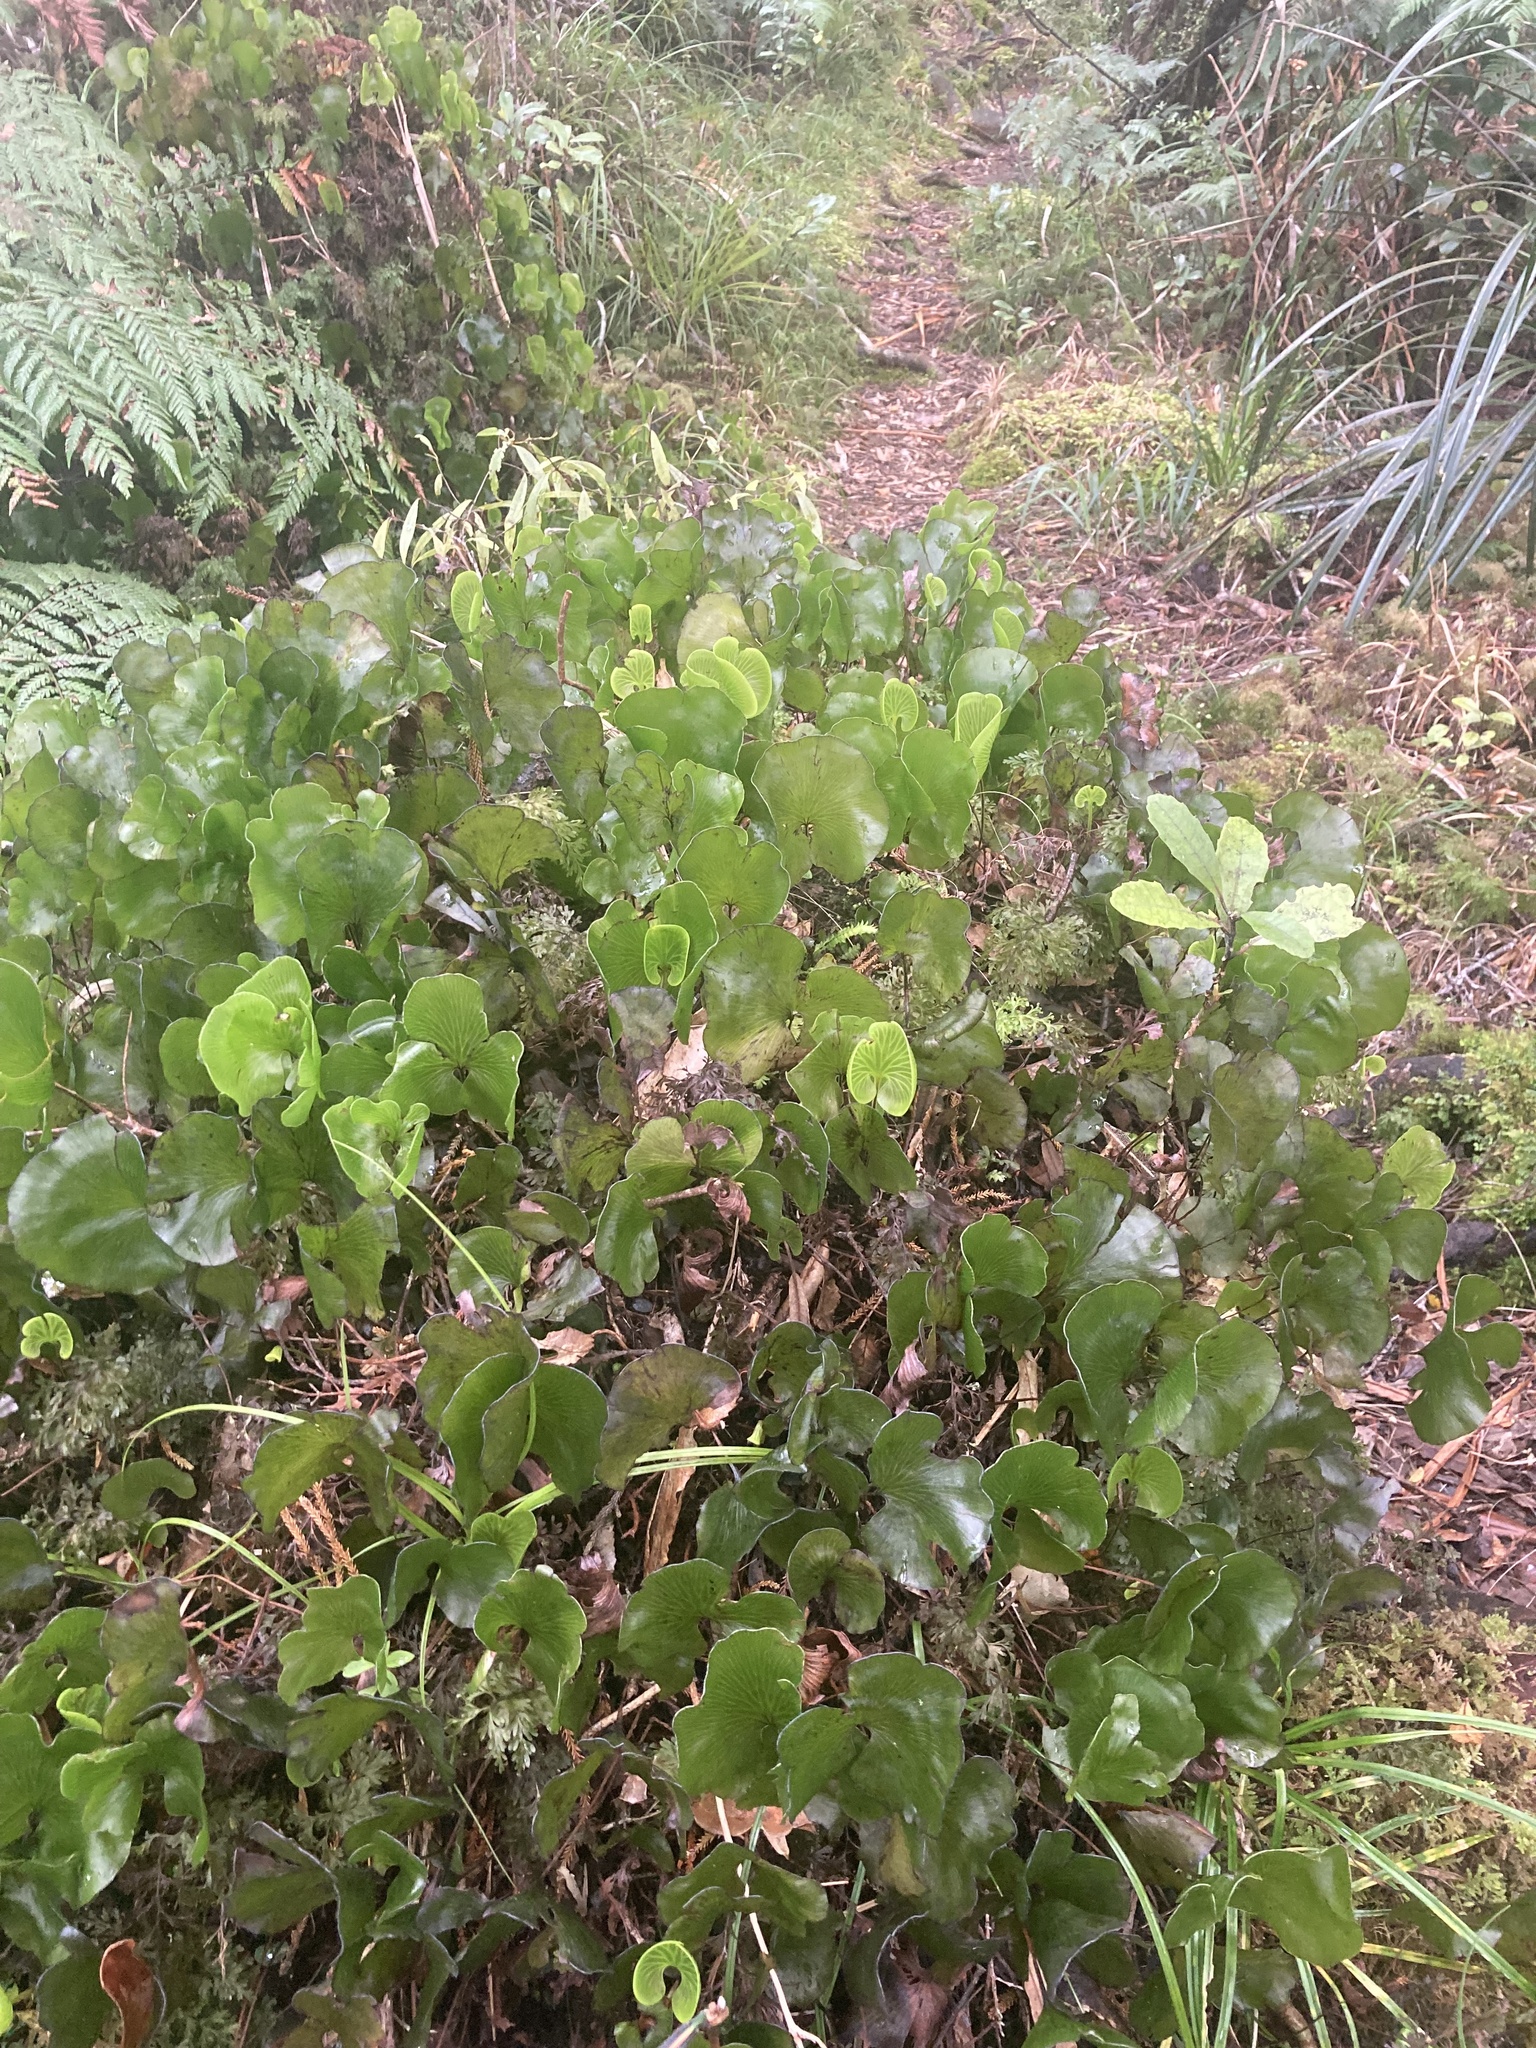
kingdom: Plantae
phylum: Tracheophyta
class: Polypodiopsida
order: Hymenophyllales
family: Hymenophyllaceae
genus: Hymenophyllum
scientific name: Hymenophyllum nephrophyllum
